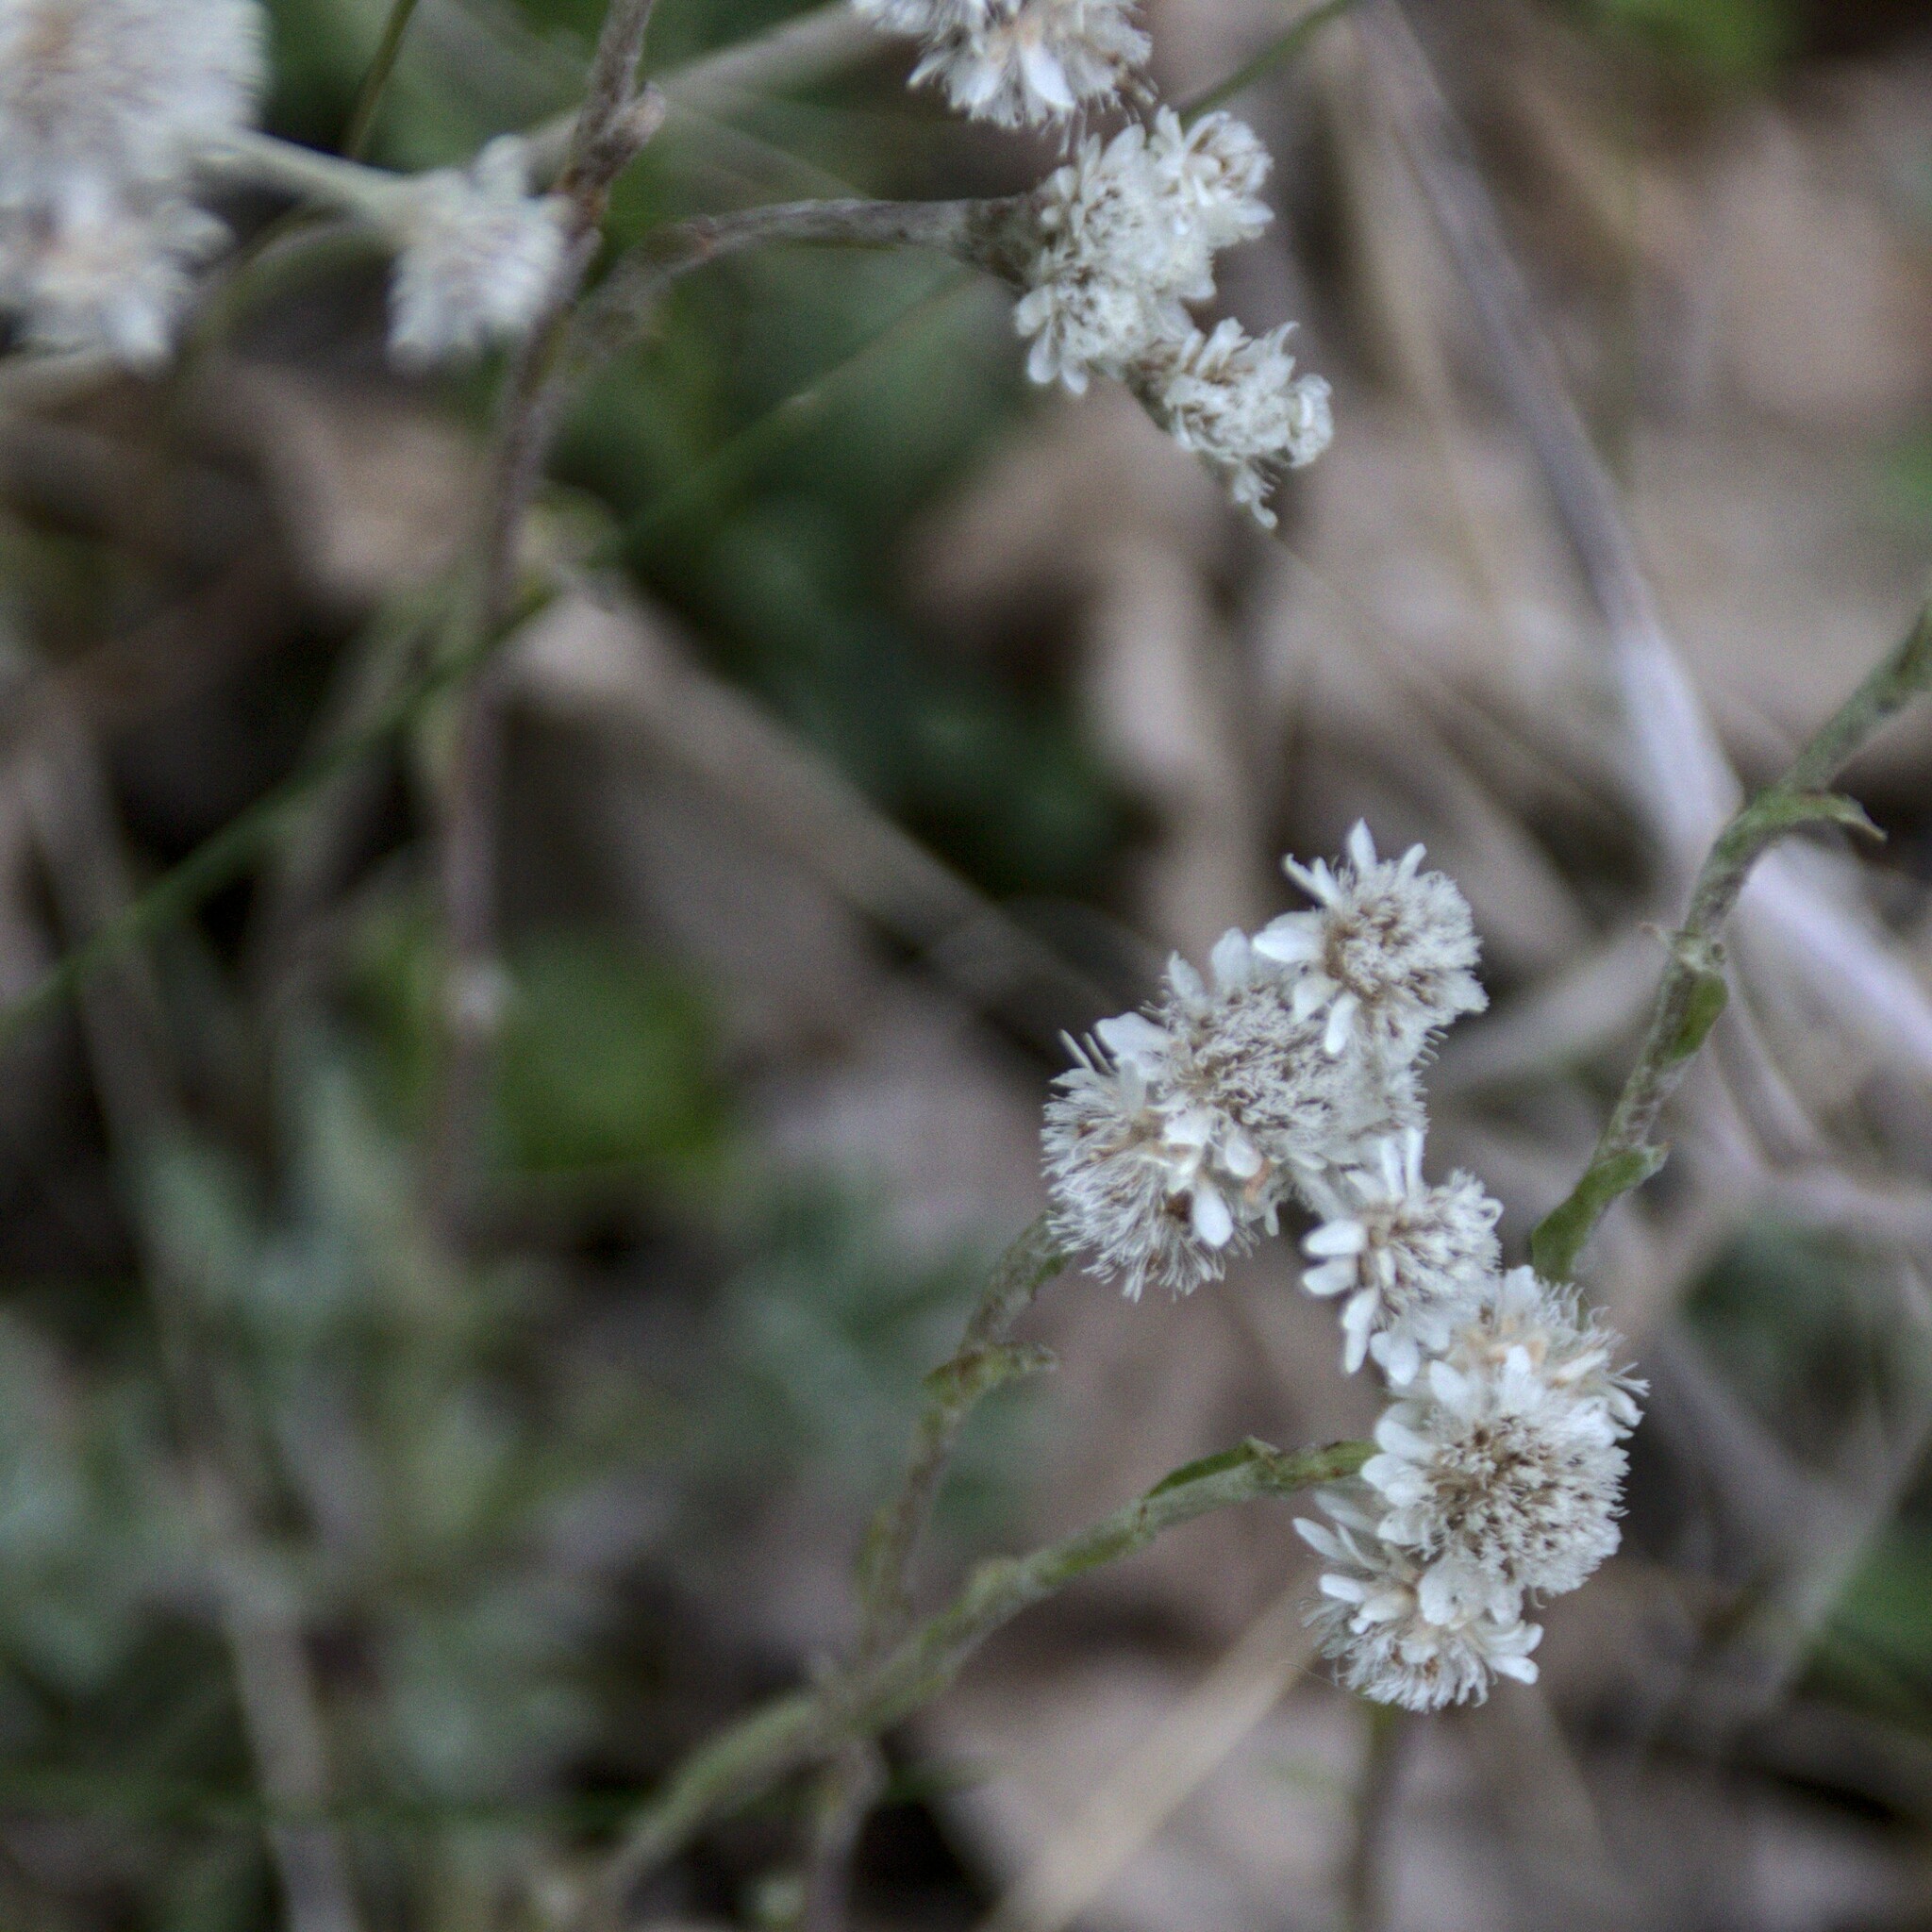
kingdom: Plantae
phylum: Tracheophyta
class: Magnoliopsida
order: Asterales
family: Asteraceae
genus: Antennaria
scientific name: Antennaria dioica
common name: Mountain everlasting
